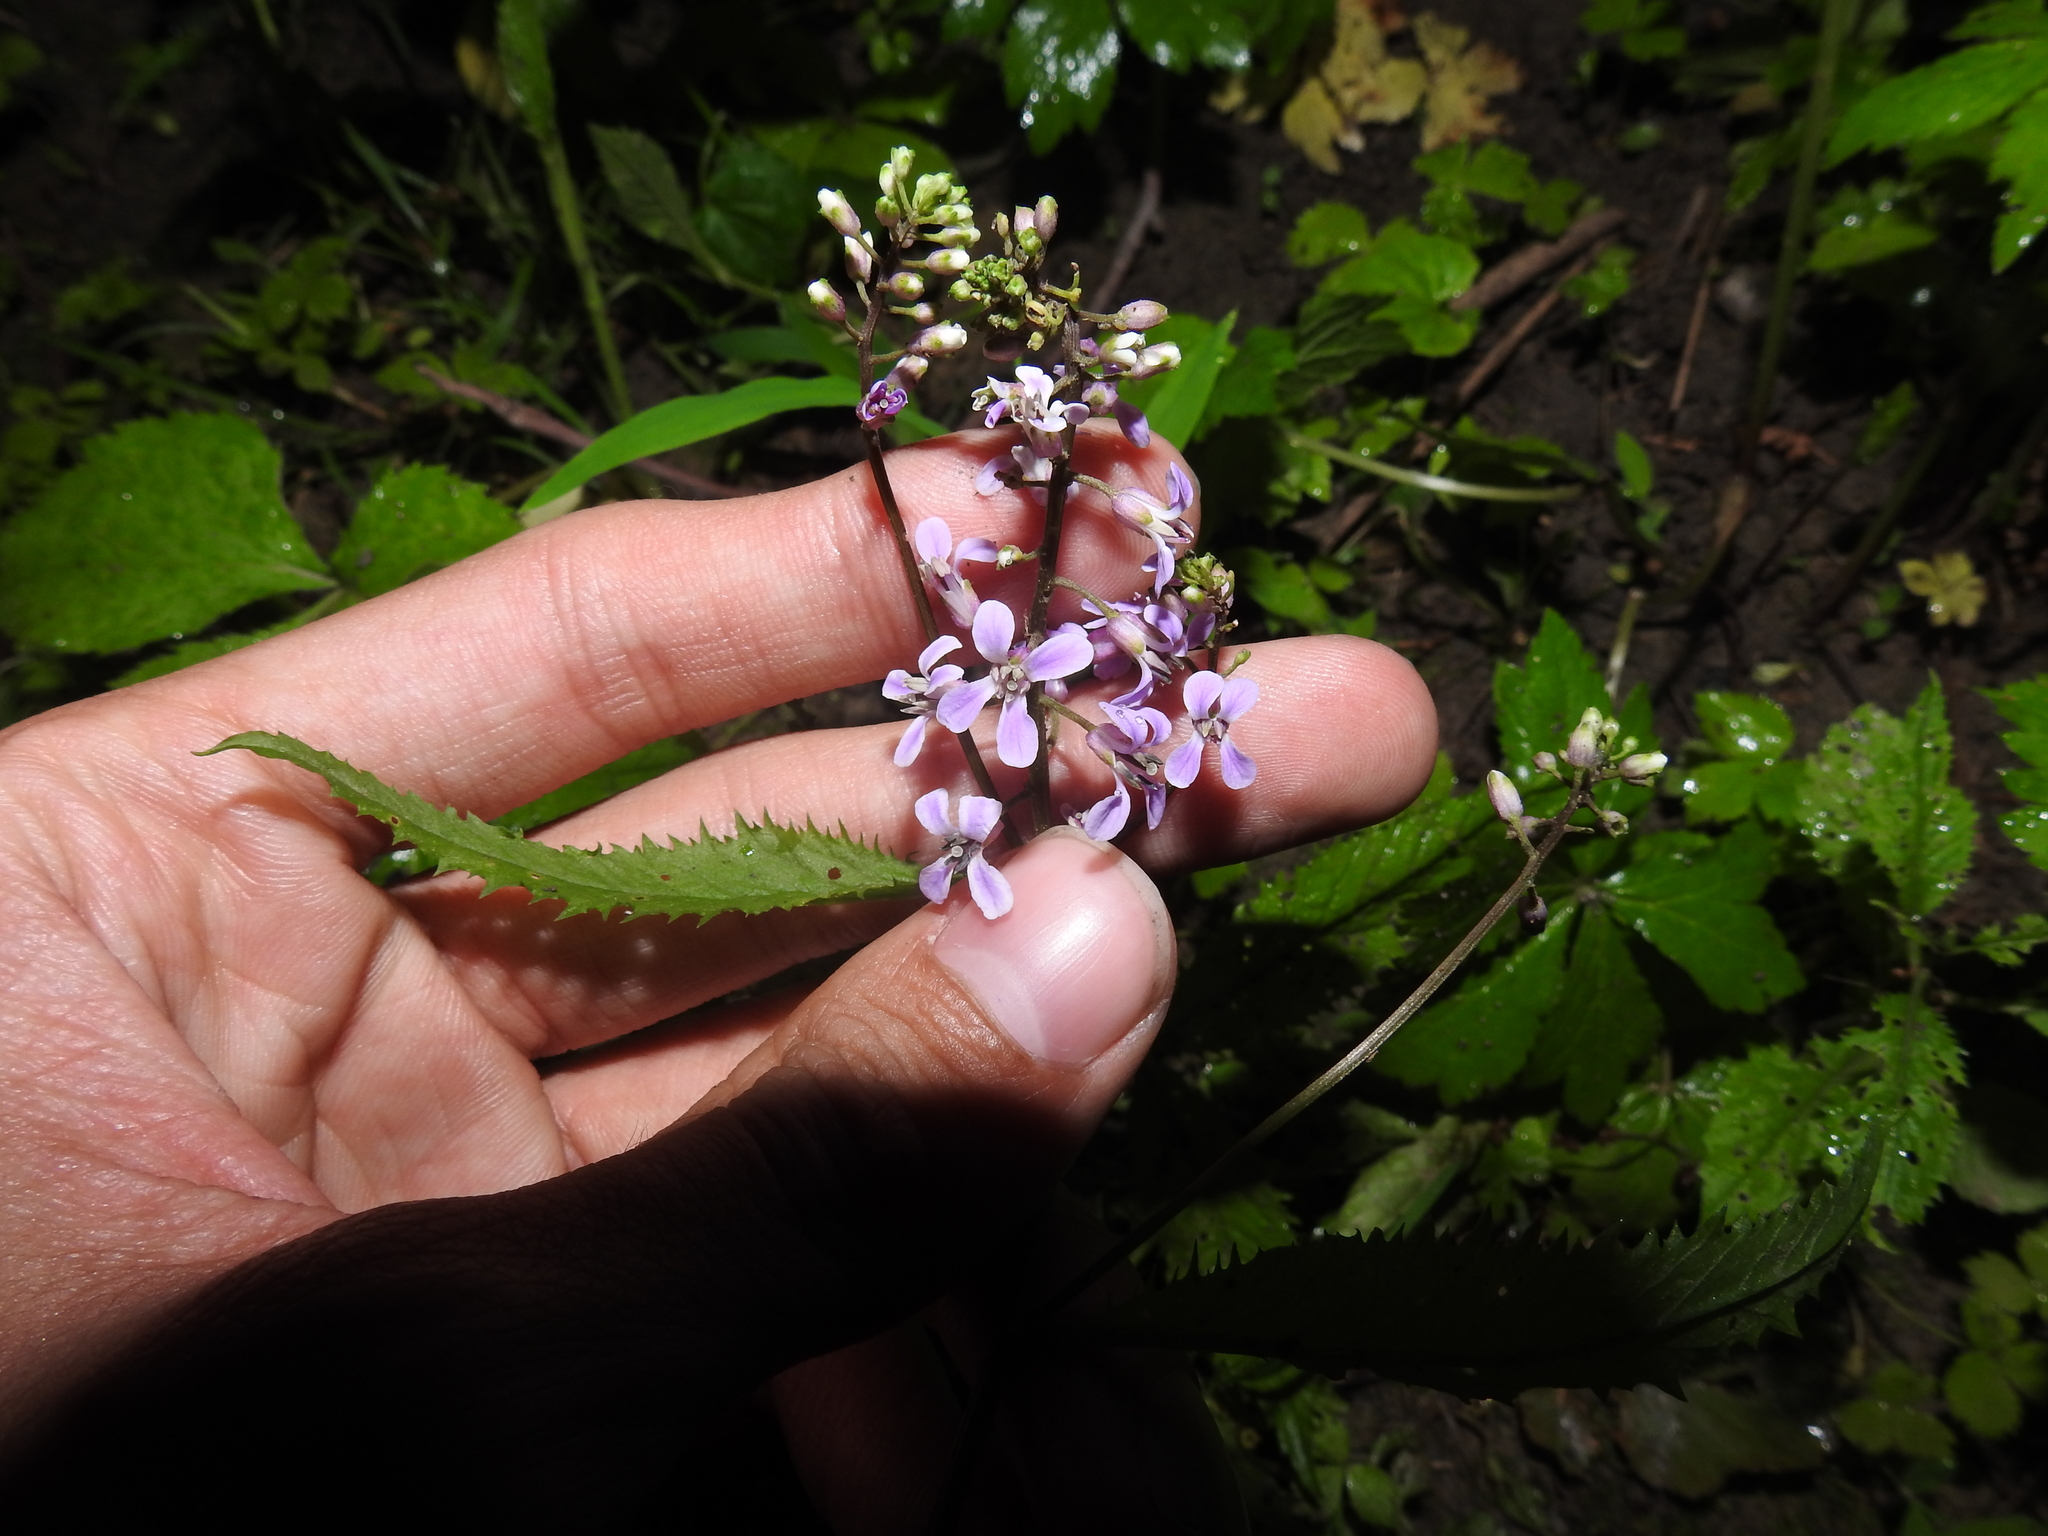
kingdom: Plantae
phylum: Tracheophyta
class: Magnoliopsida
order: Brassicales
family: Brassicaceae
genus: Iodanthus
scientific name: Iodanthus pinnatifidus
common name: Violet rocket
